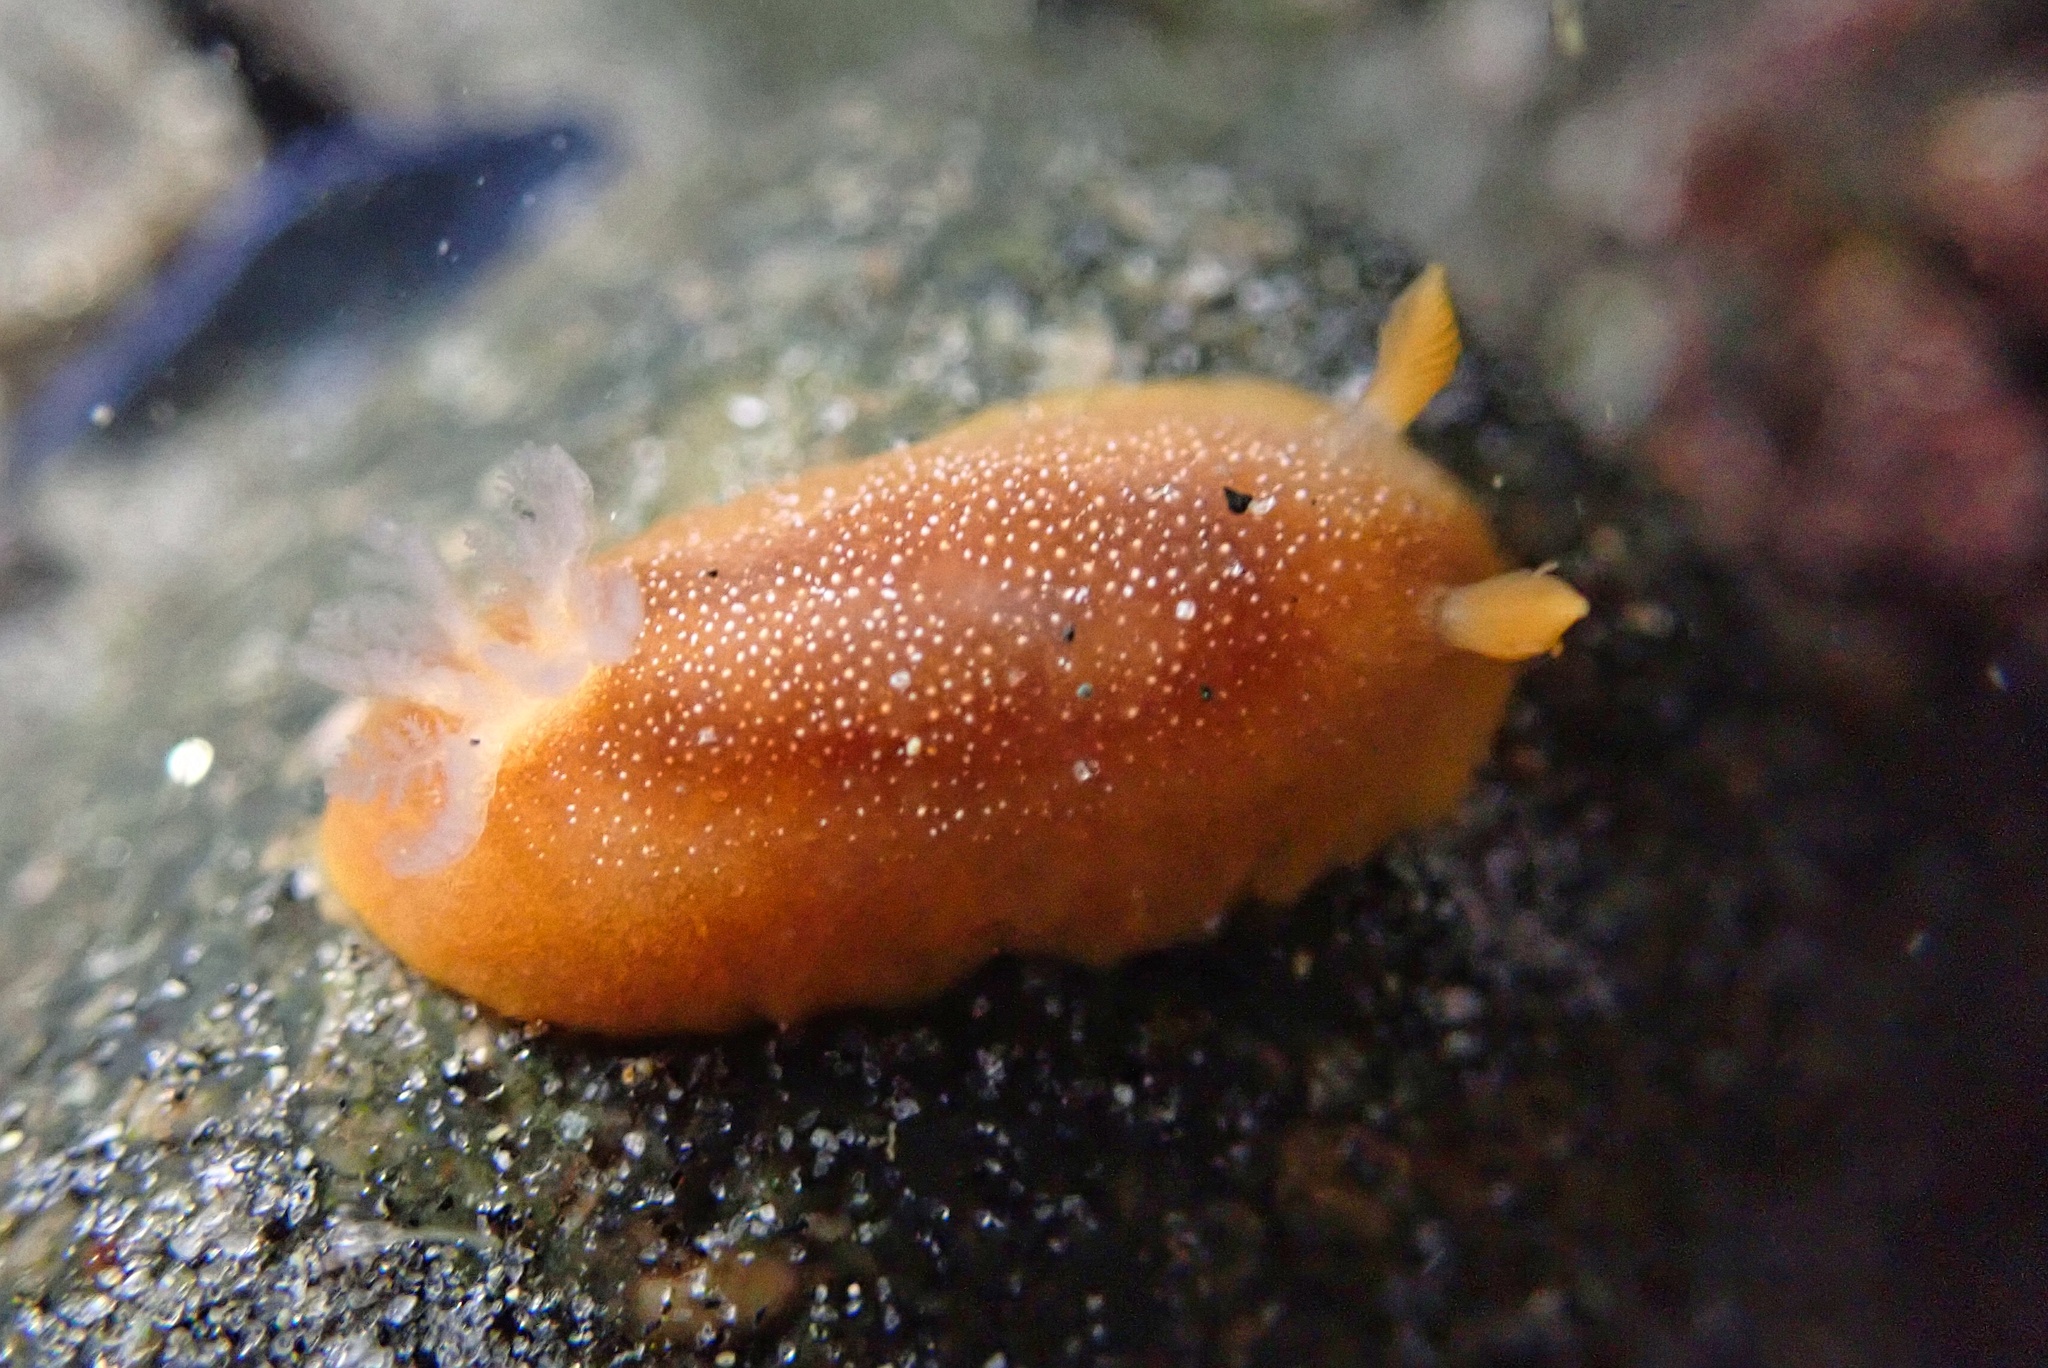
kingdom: Animalia
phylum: Mollusca
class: Gastropoda
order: Nudibranchia
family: Dendrodorididae
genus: Doriopsilla
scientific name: Doriopsilla albopunctata
